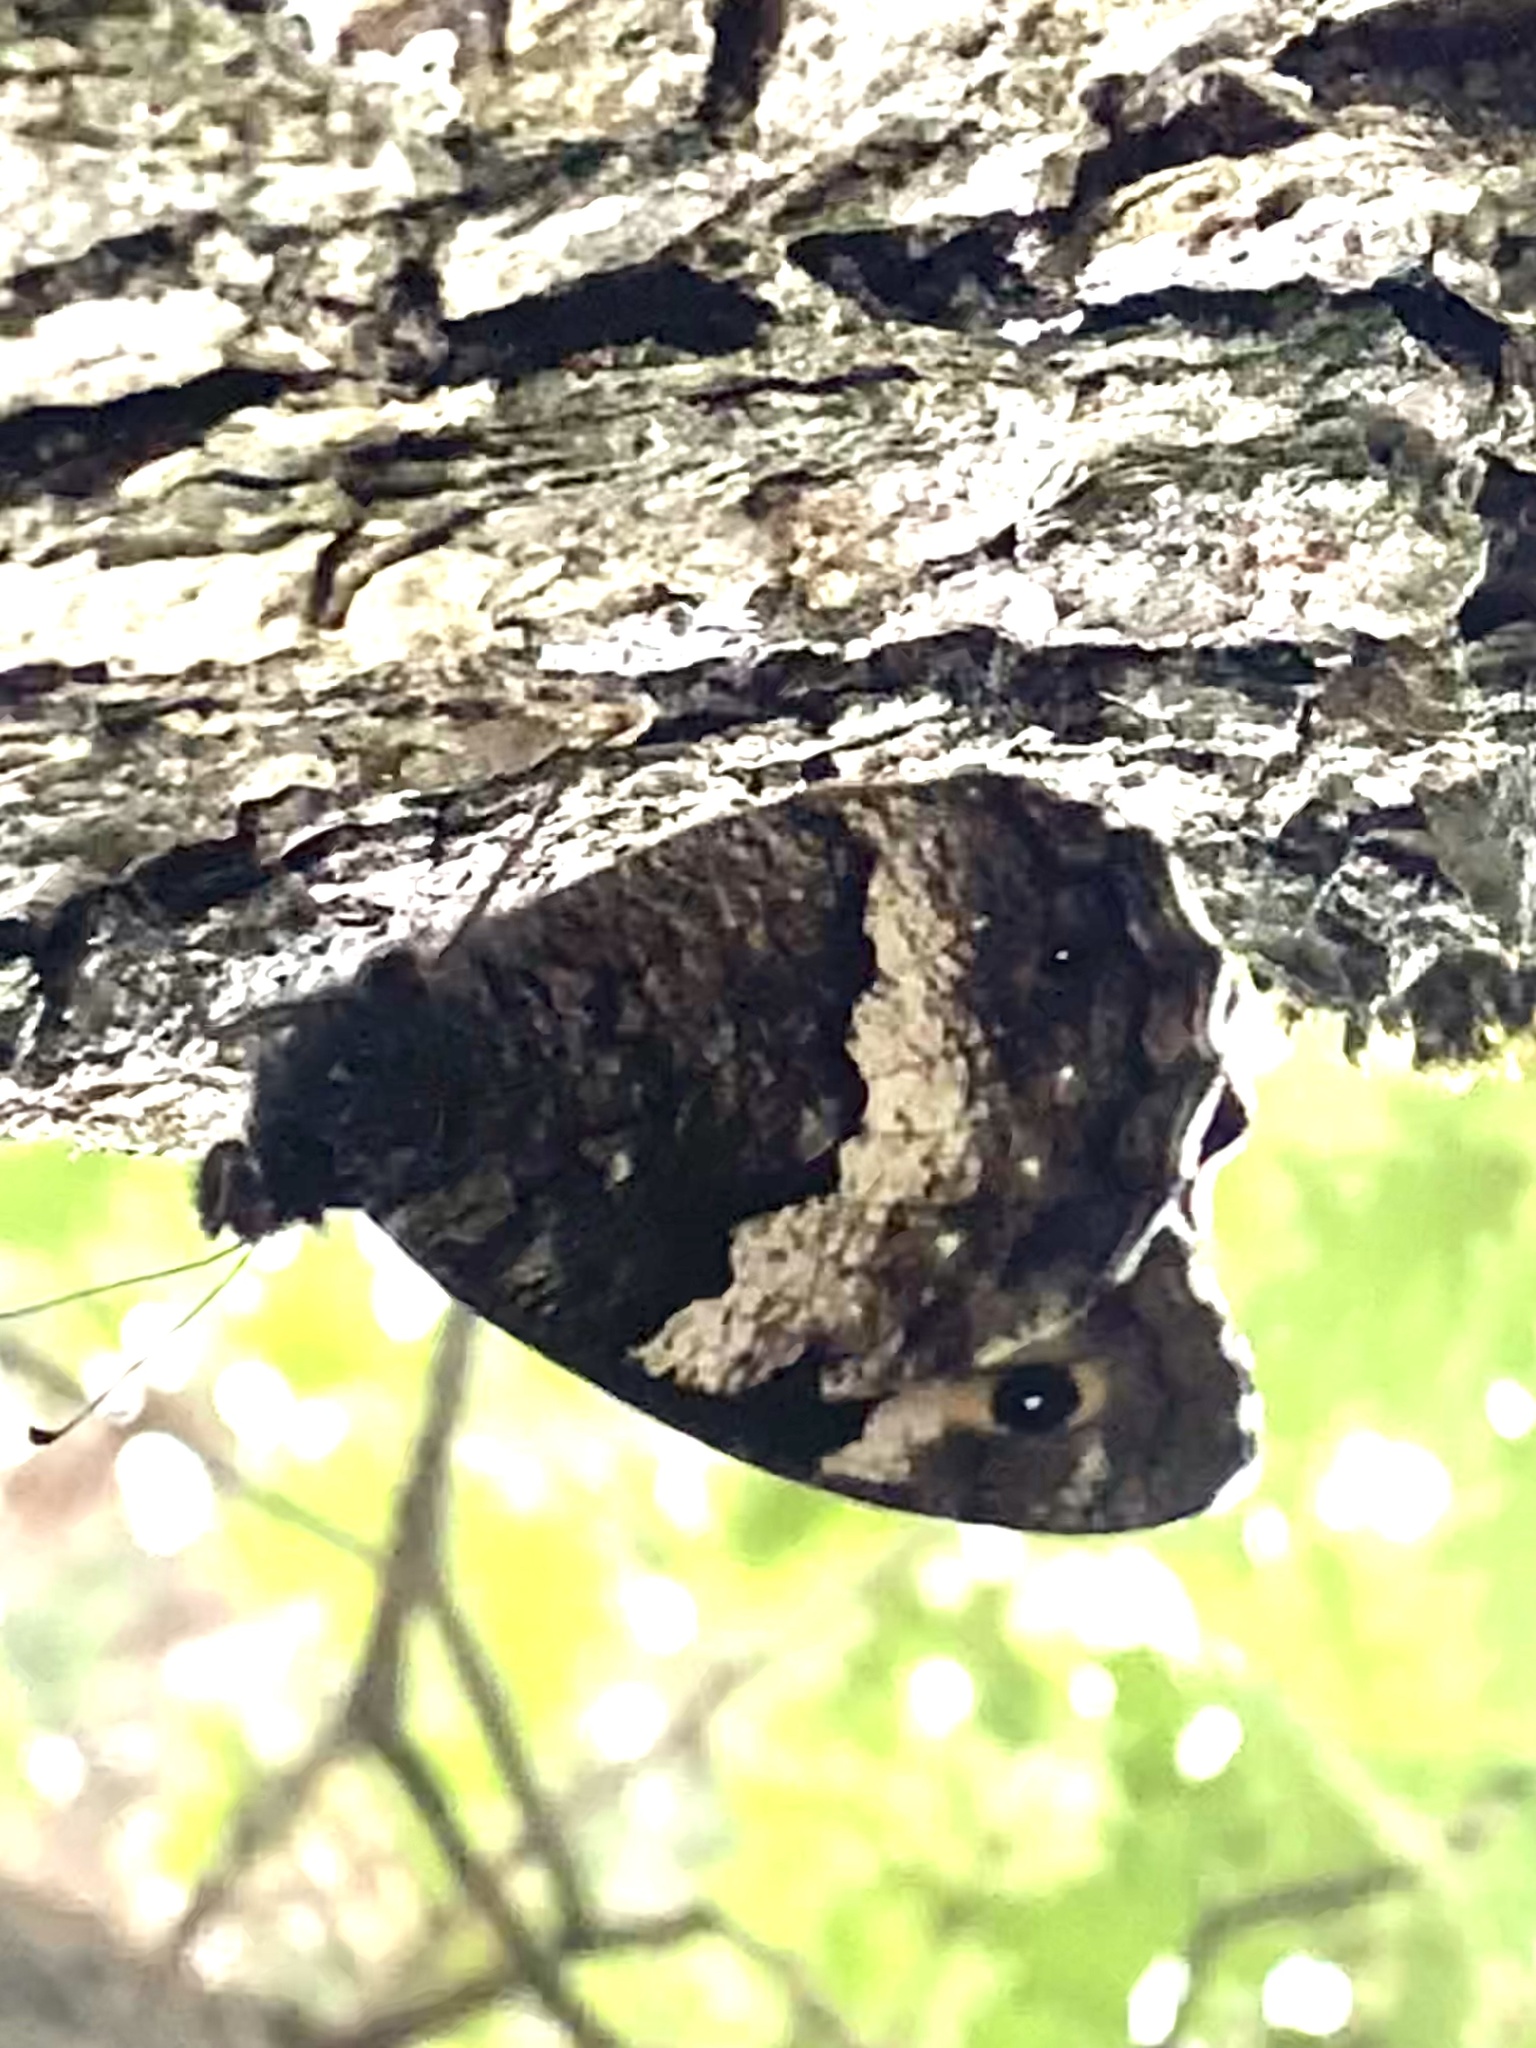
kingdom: Animalia
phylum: Arthropoda
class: Insecta
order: Lepidoptera
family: Nymphalidae
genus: Hipparchia
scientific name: Hipparchia fagi
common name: Woodland grayling
